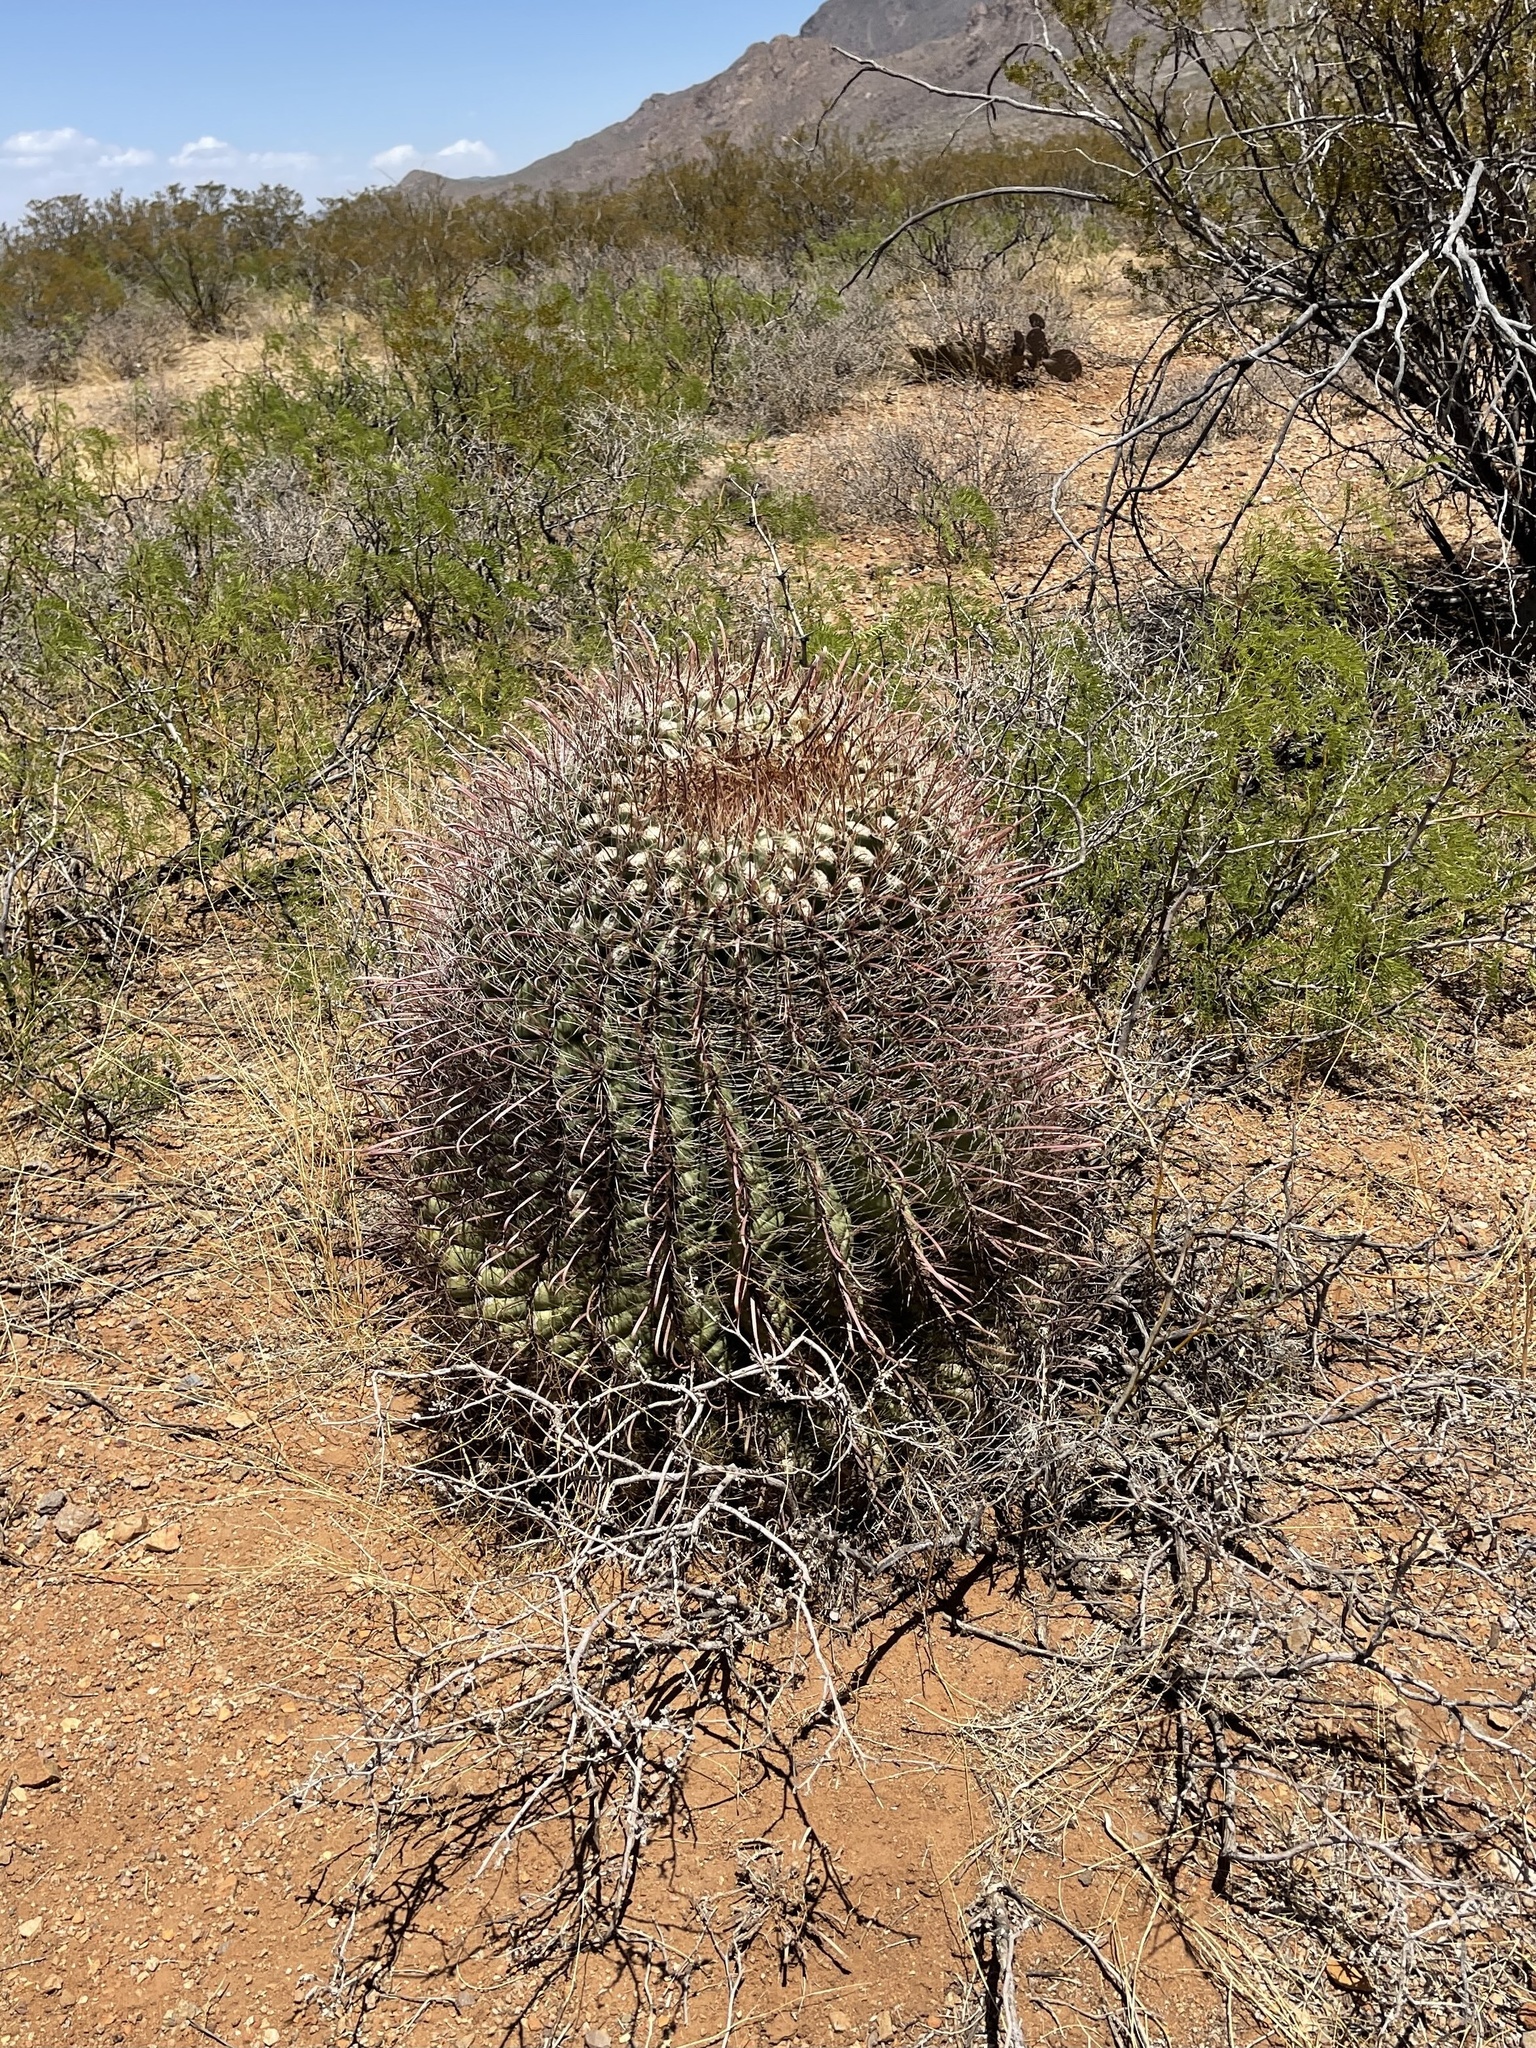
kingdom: Plantae
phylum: Tracheophyta
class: Magnoliopsida
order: Caryophyllales
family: Cactaceae
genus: Ferocactus
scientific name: Ferocactus wislizeni
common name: Candy barrel cactus
